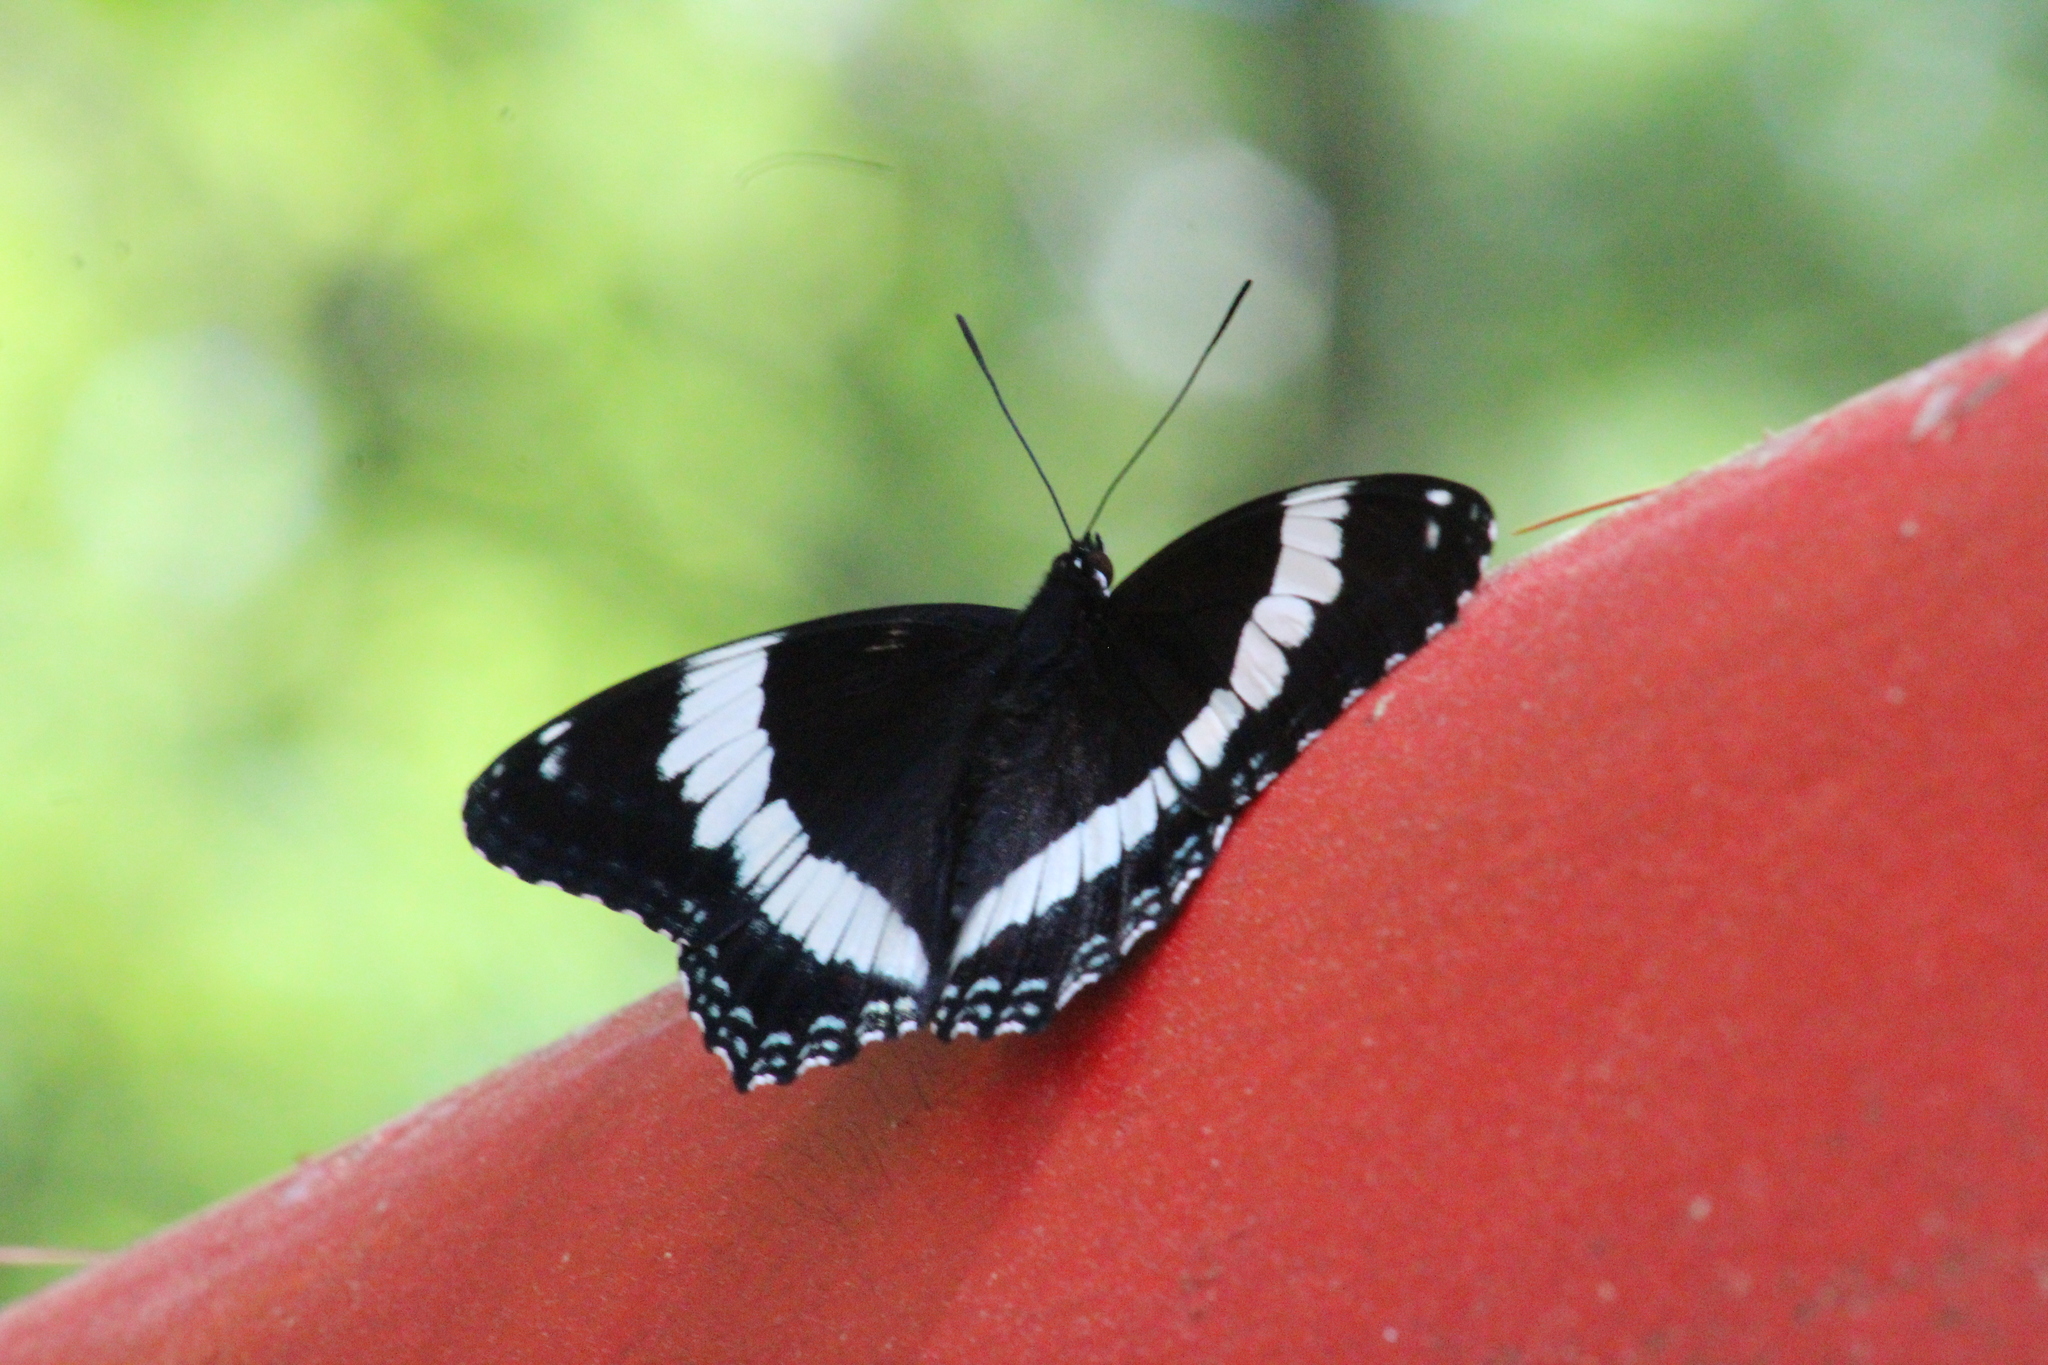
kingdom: Animalia
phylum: Arthropoda
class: Insecta
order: Lepidoptera
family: Nymphalidae
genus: Limenitis
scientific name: Limenitis arthemis
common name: Red-spotted admiral
